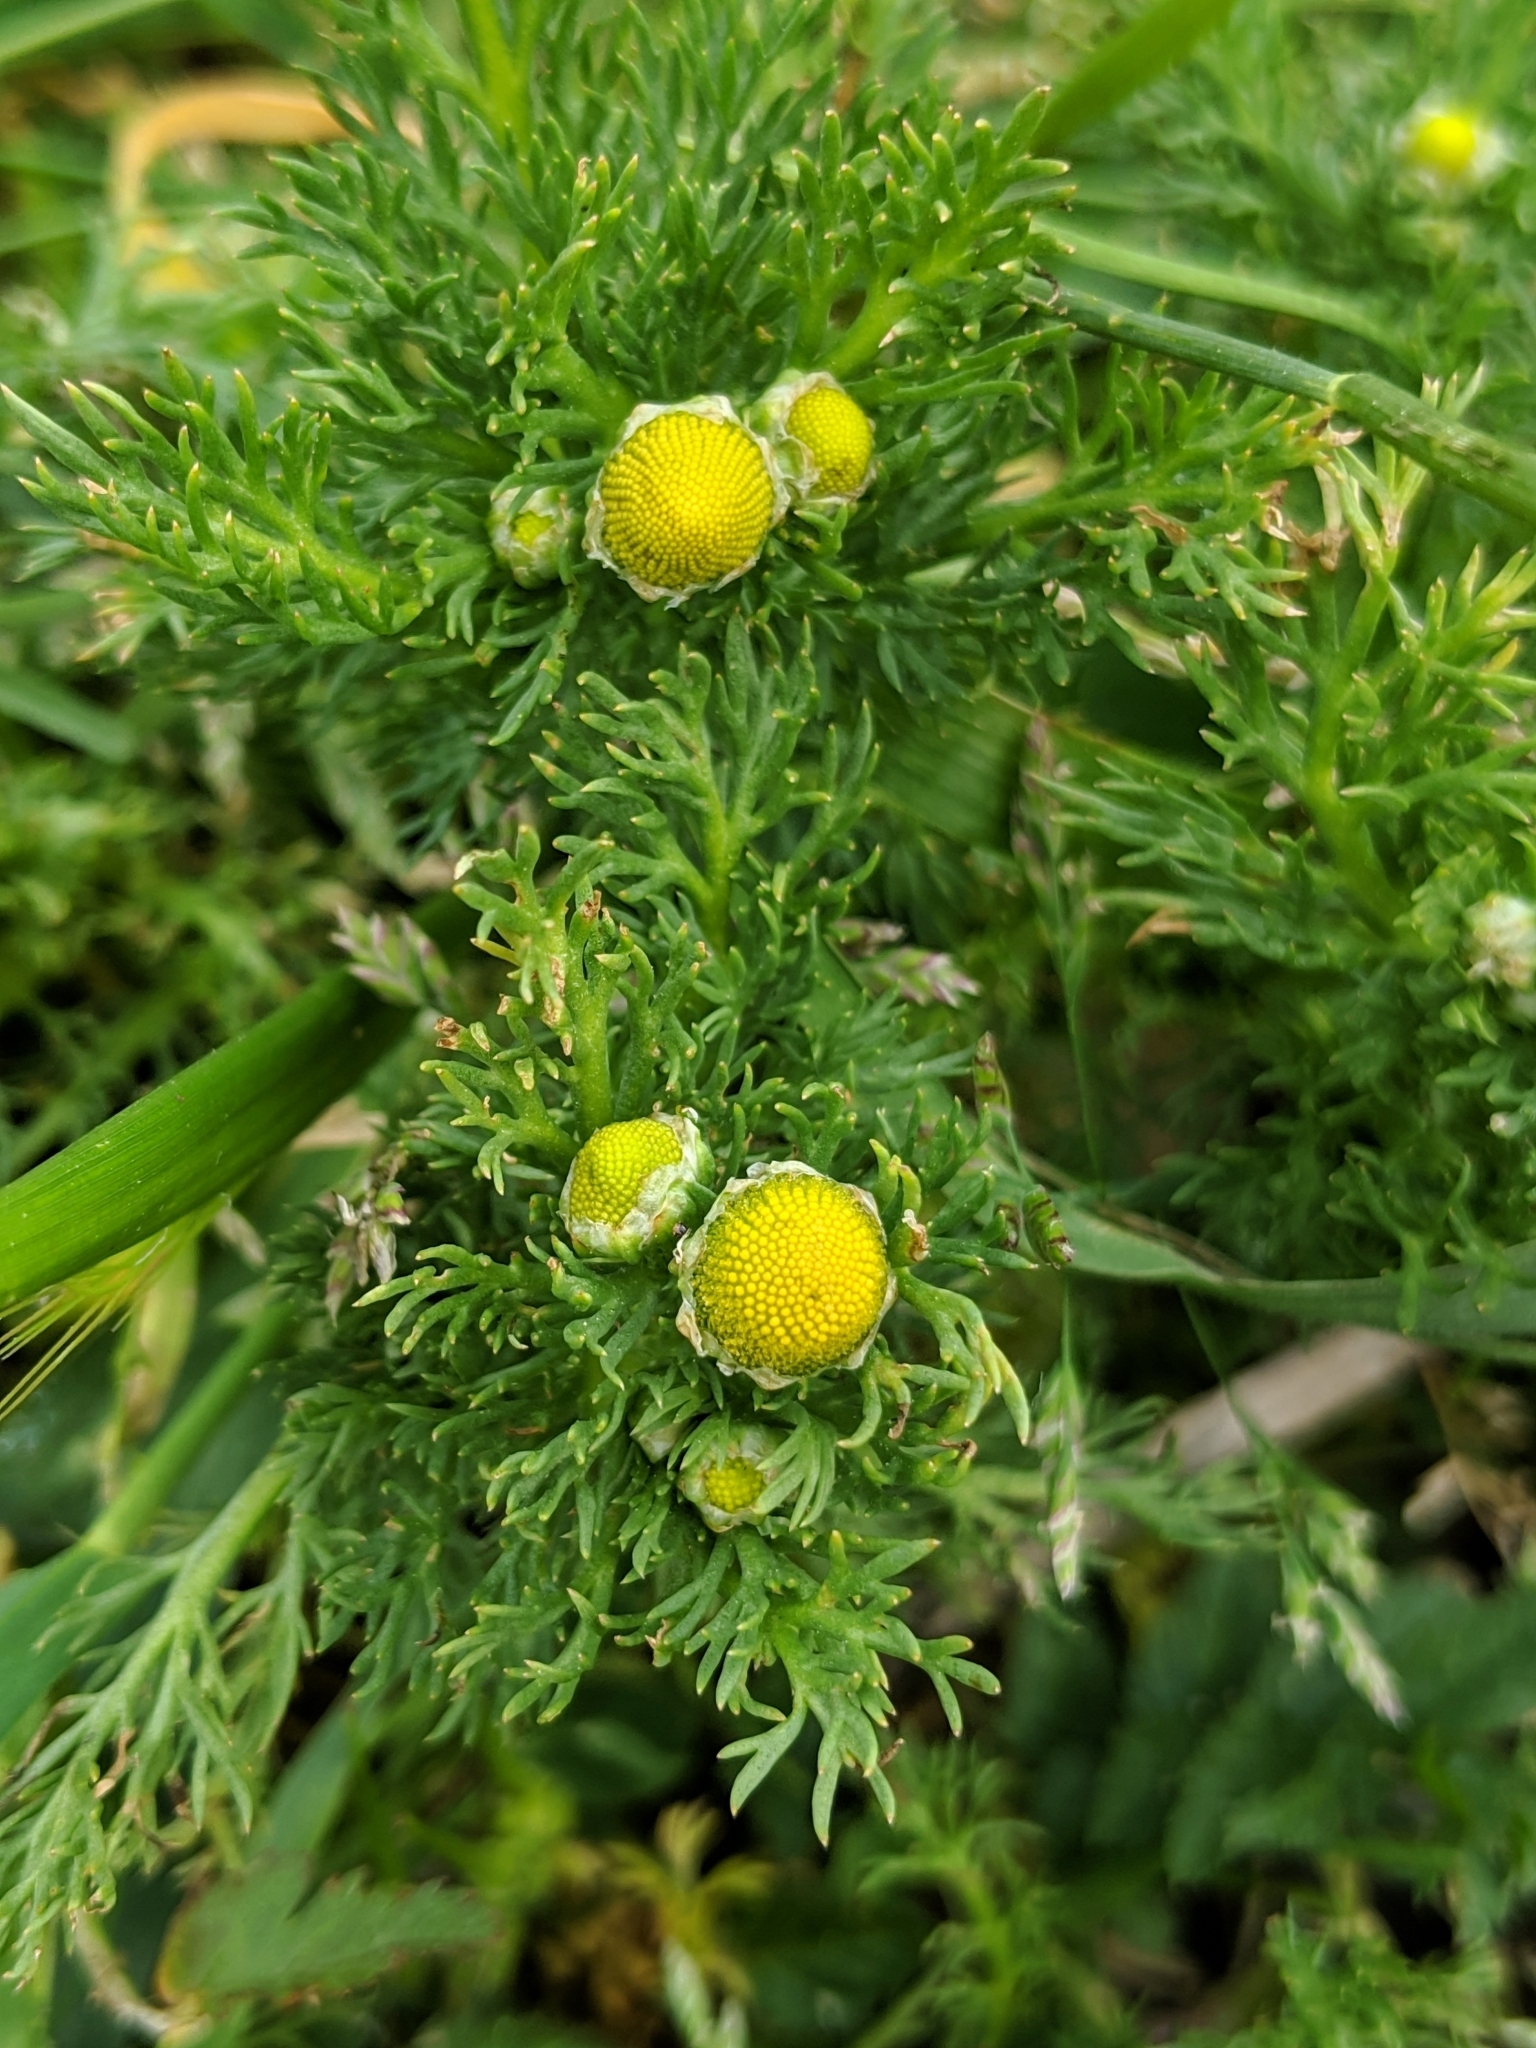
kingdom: Plantae
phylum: Tracheophyta
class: Magnoliopsida
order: Asterales
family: Asteraceae
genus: Matricaria
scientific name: Matricaria discoidea
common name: Disc mayweed
